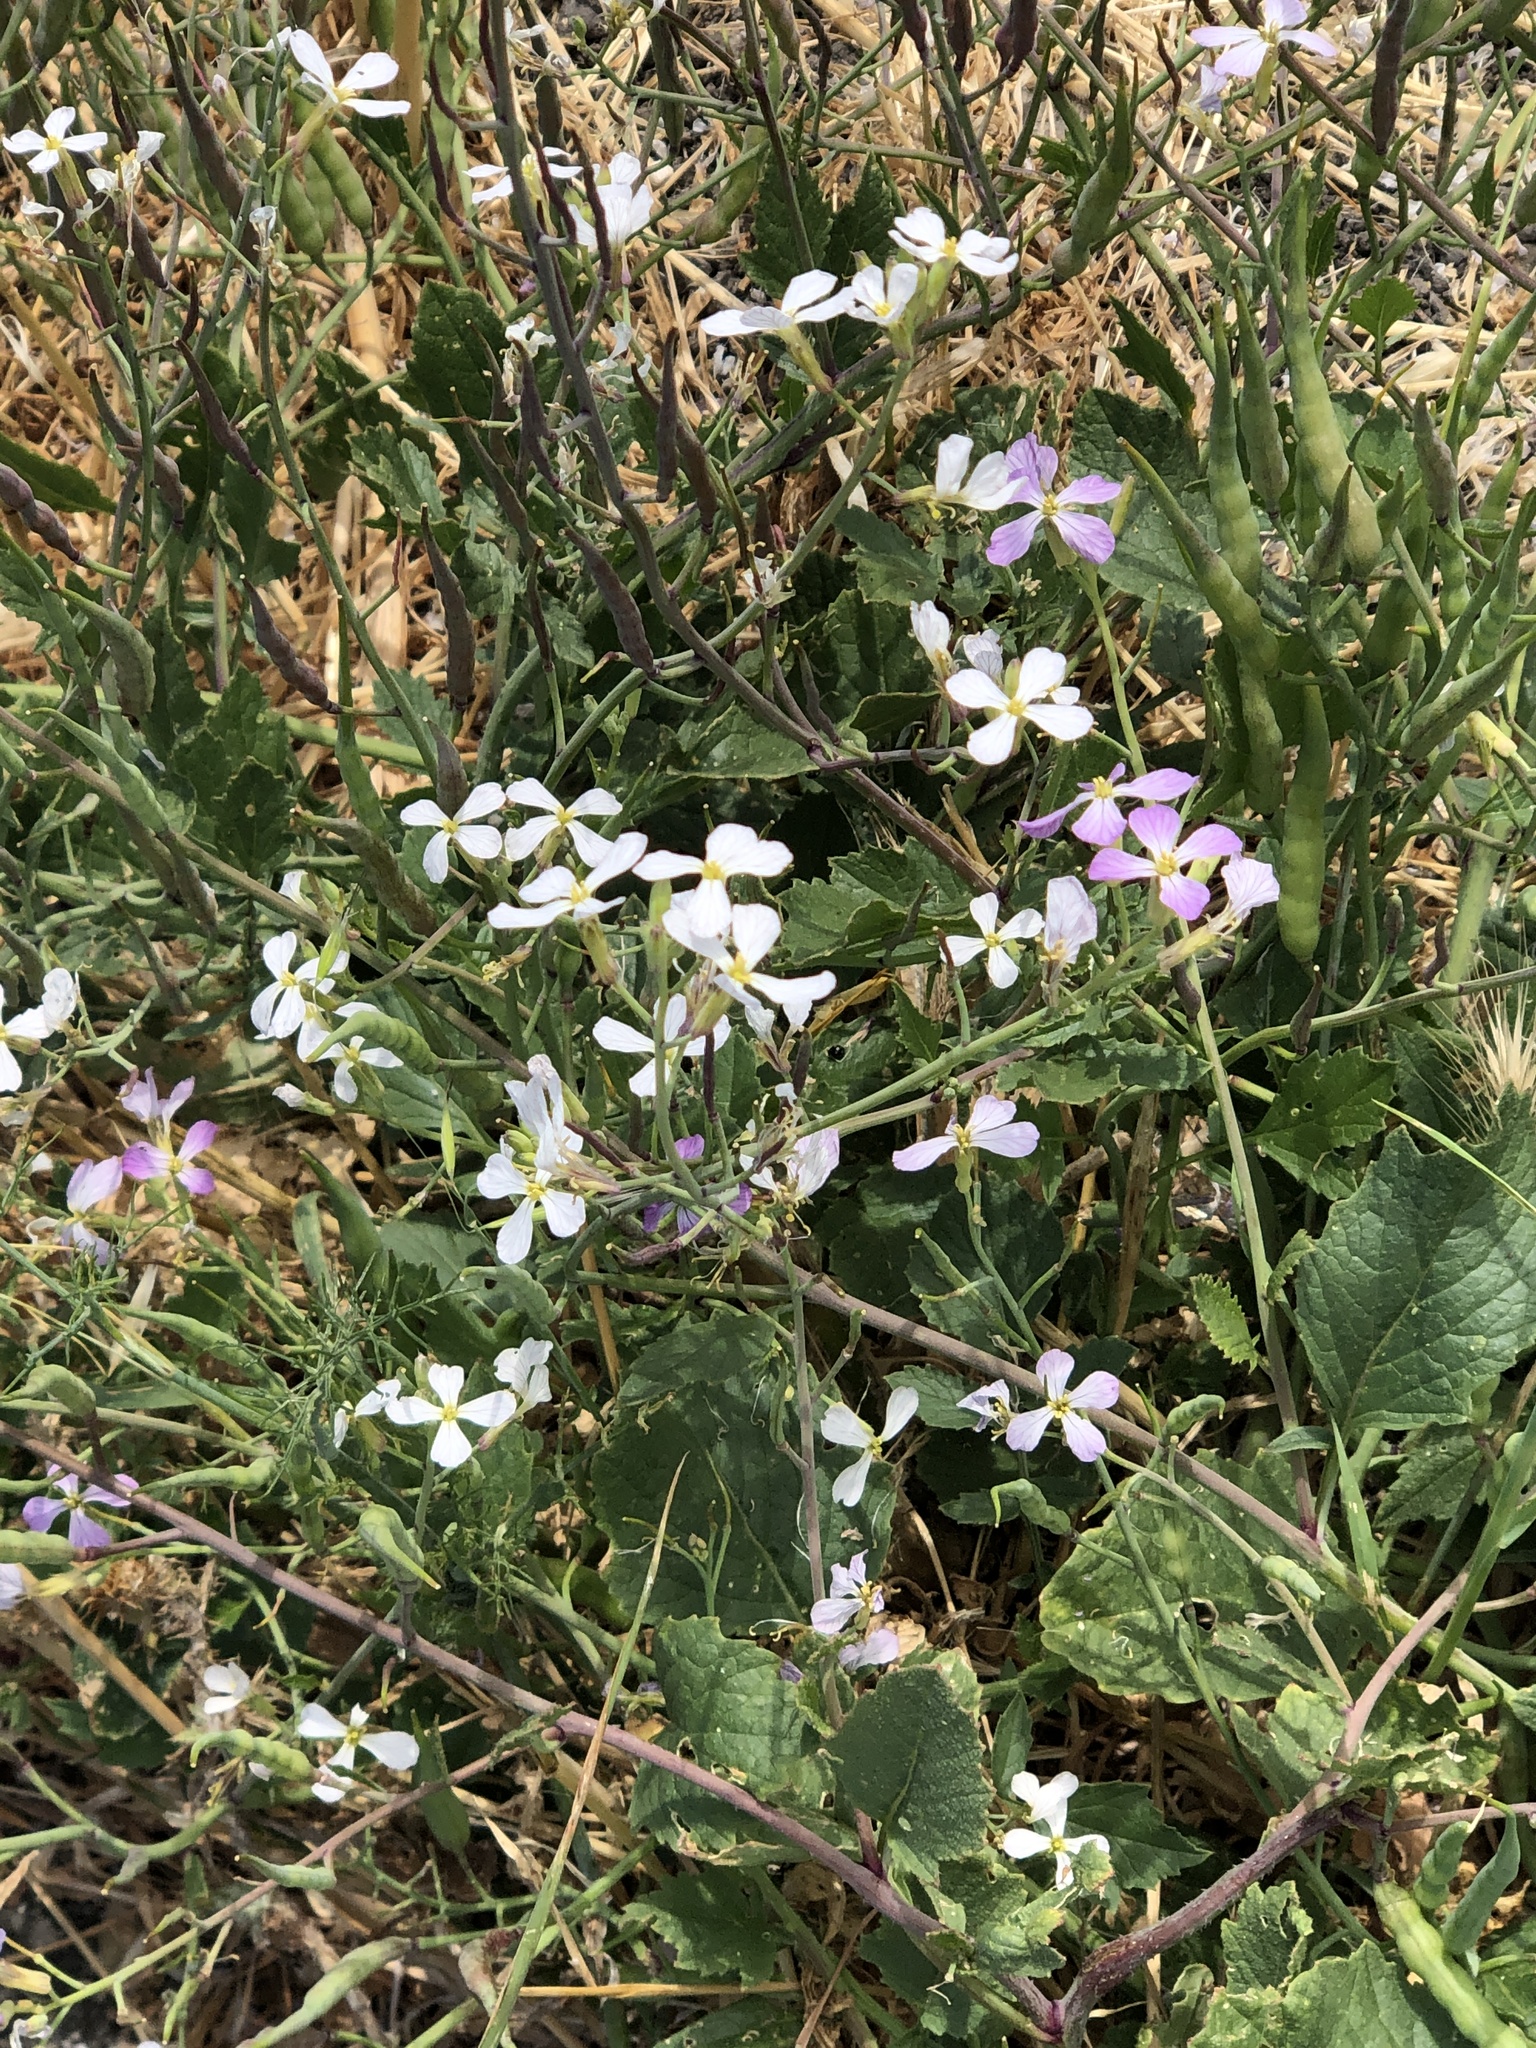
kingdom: Plantae
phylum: Tracheophyta
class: Magnoliopsida
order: Brassicales
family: Brassicaceae
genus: Raphanus
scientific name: Raphanus sativus
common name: Cultivated radish
